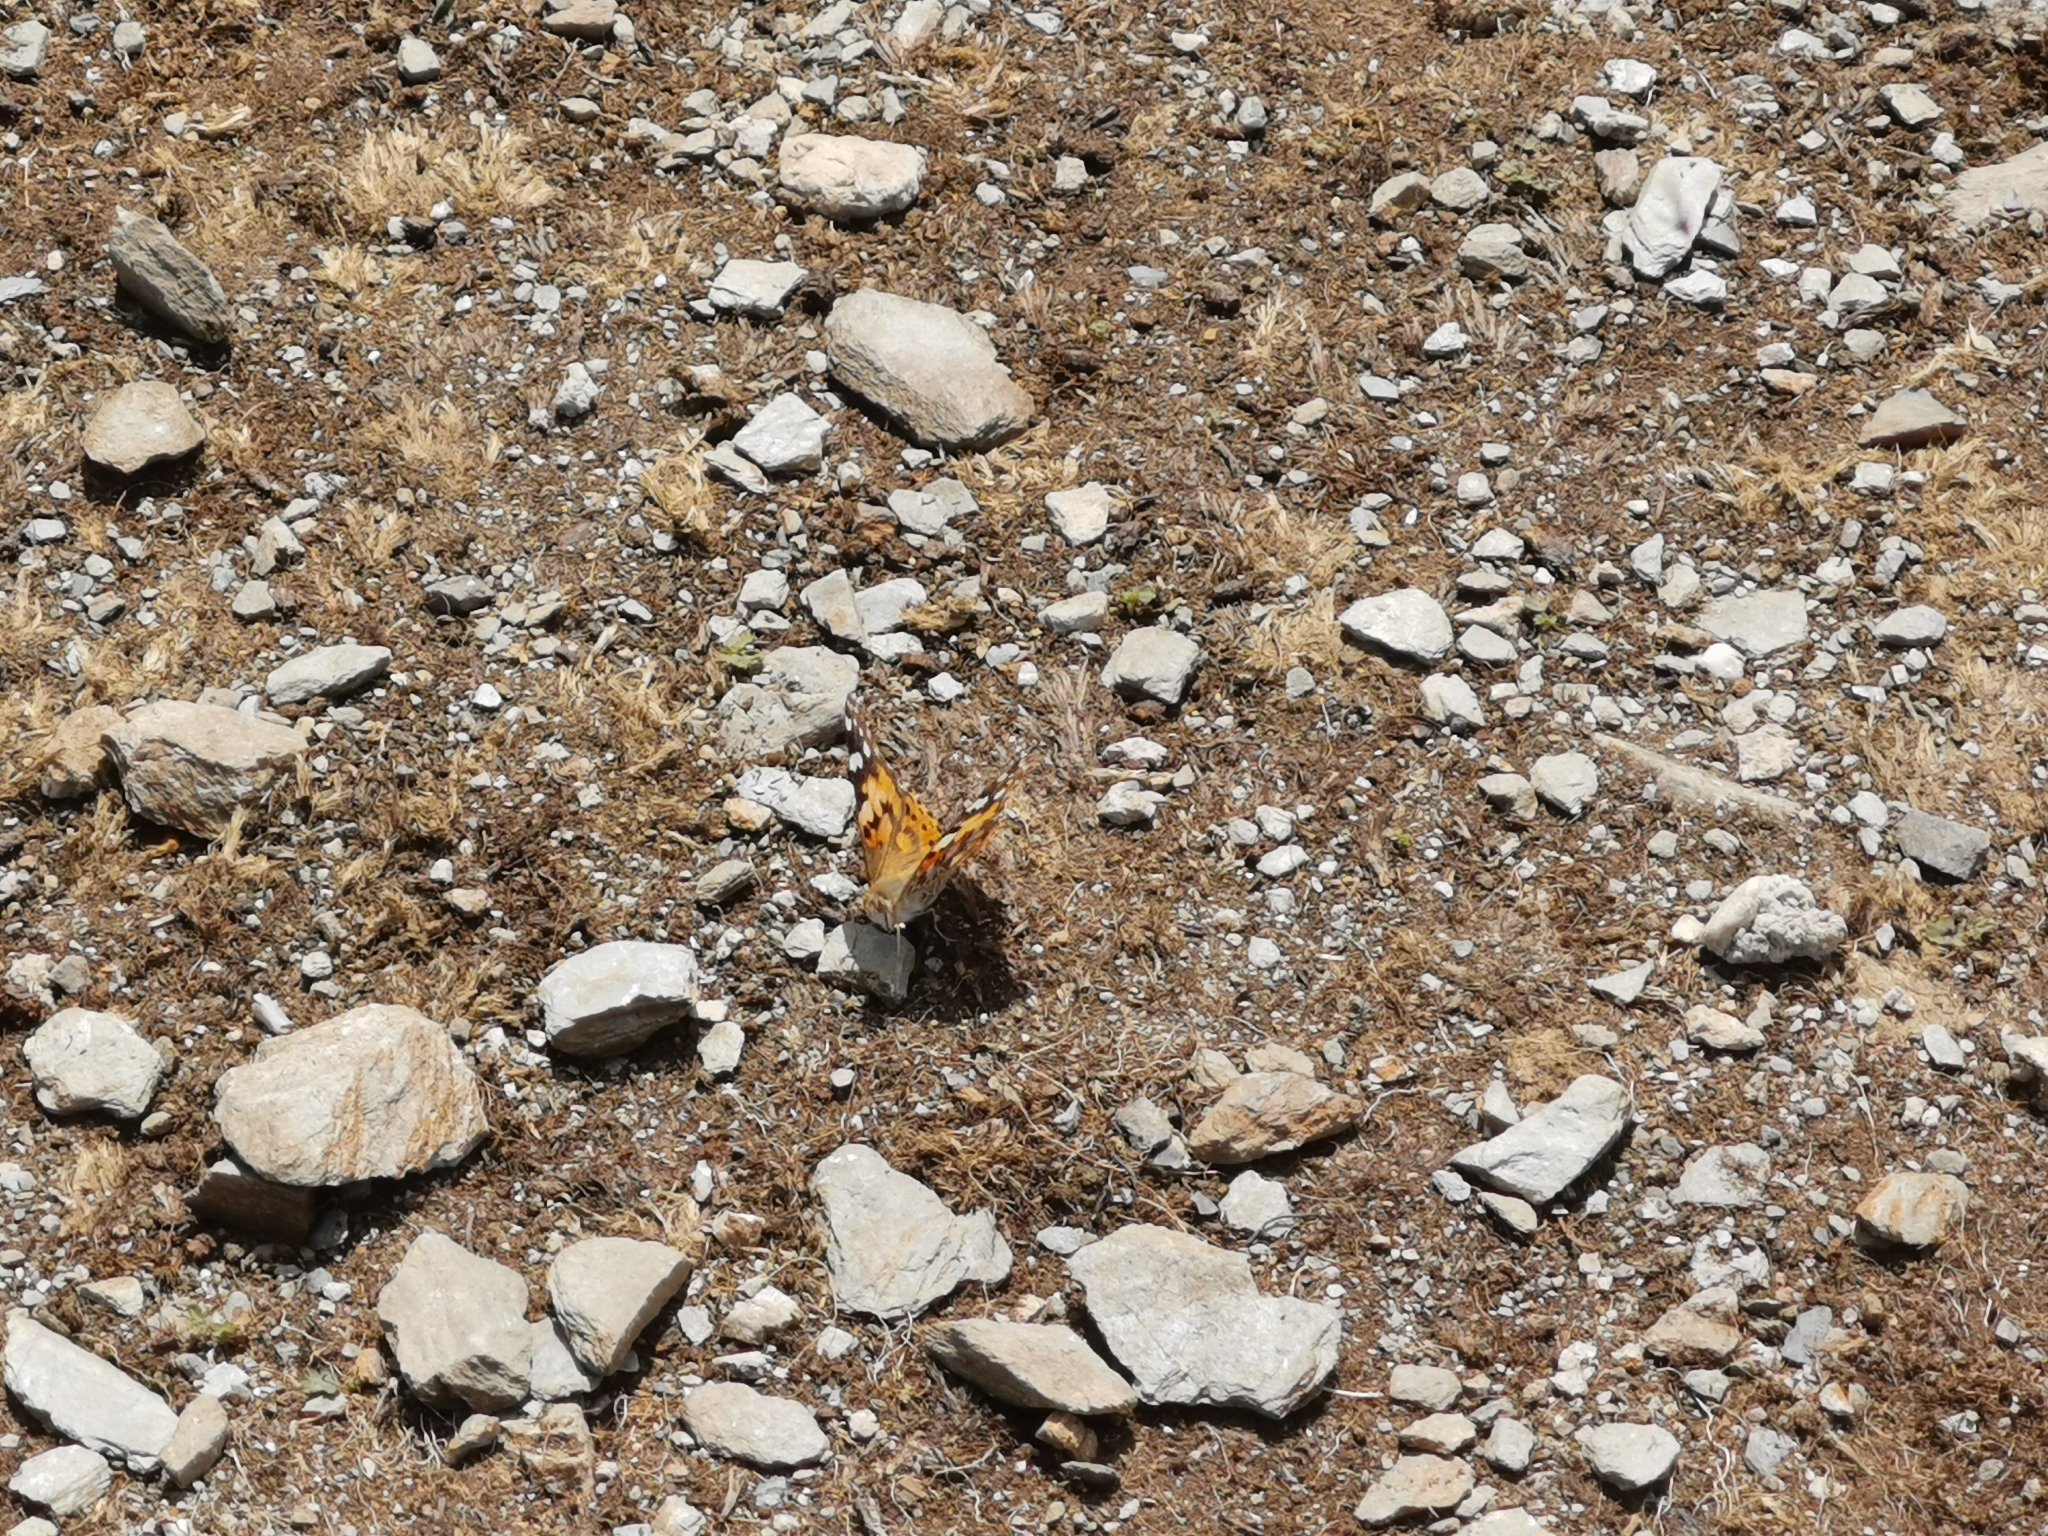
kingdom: Animalia
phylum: Arthropoda
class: Insecta
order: Lepidoptera
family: Nymphalidae
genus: Vanessa
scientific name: Vanessa cardui
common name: Painted lady
